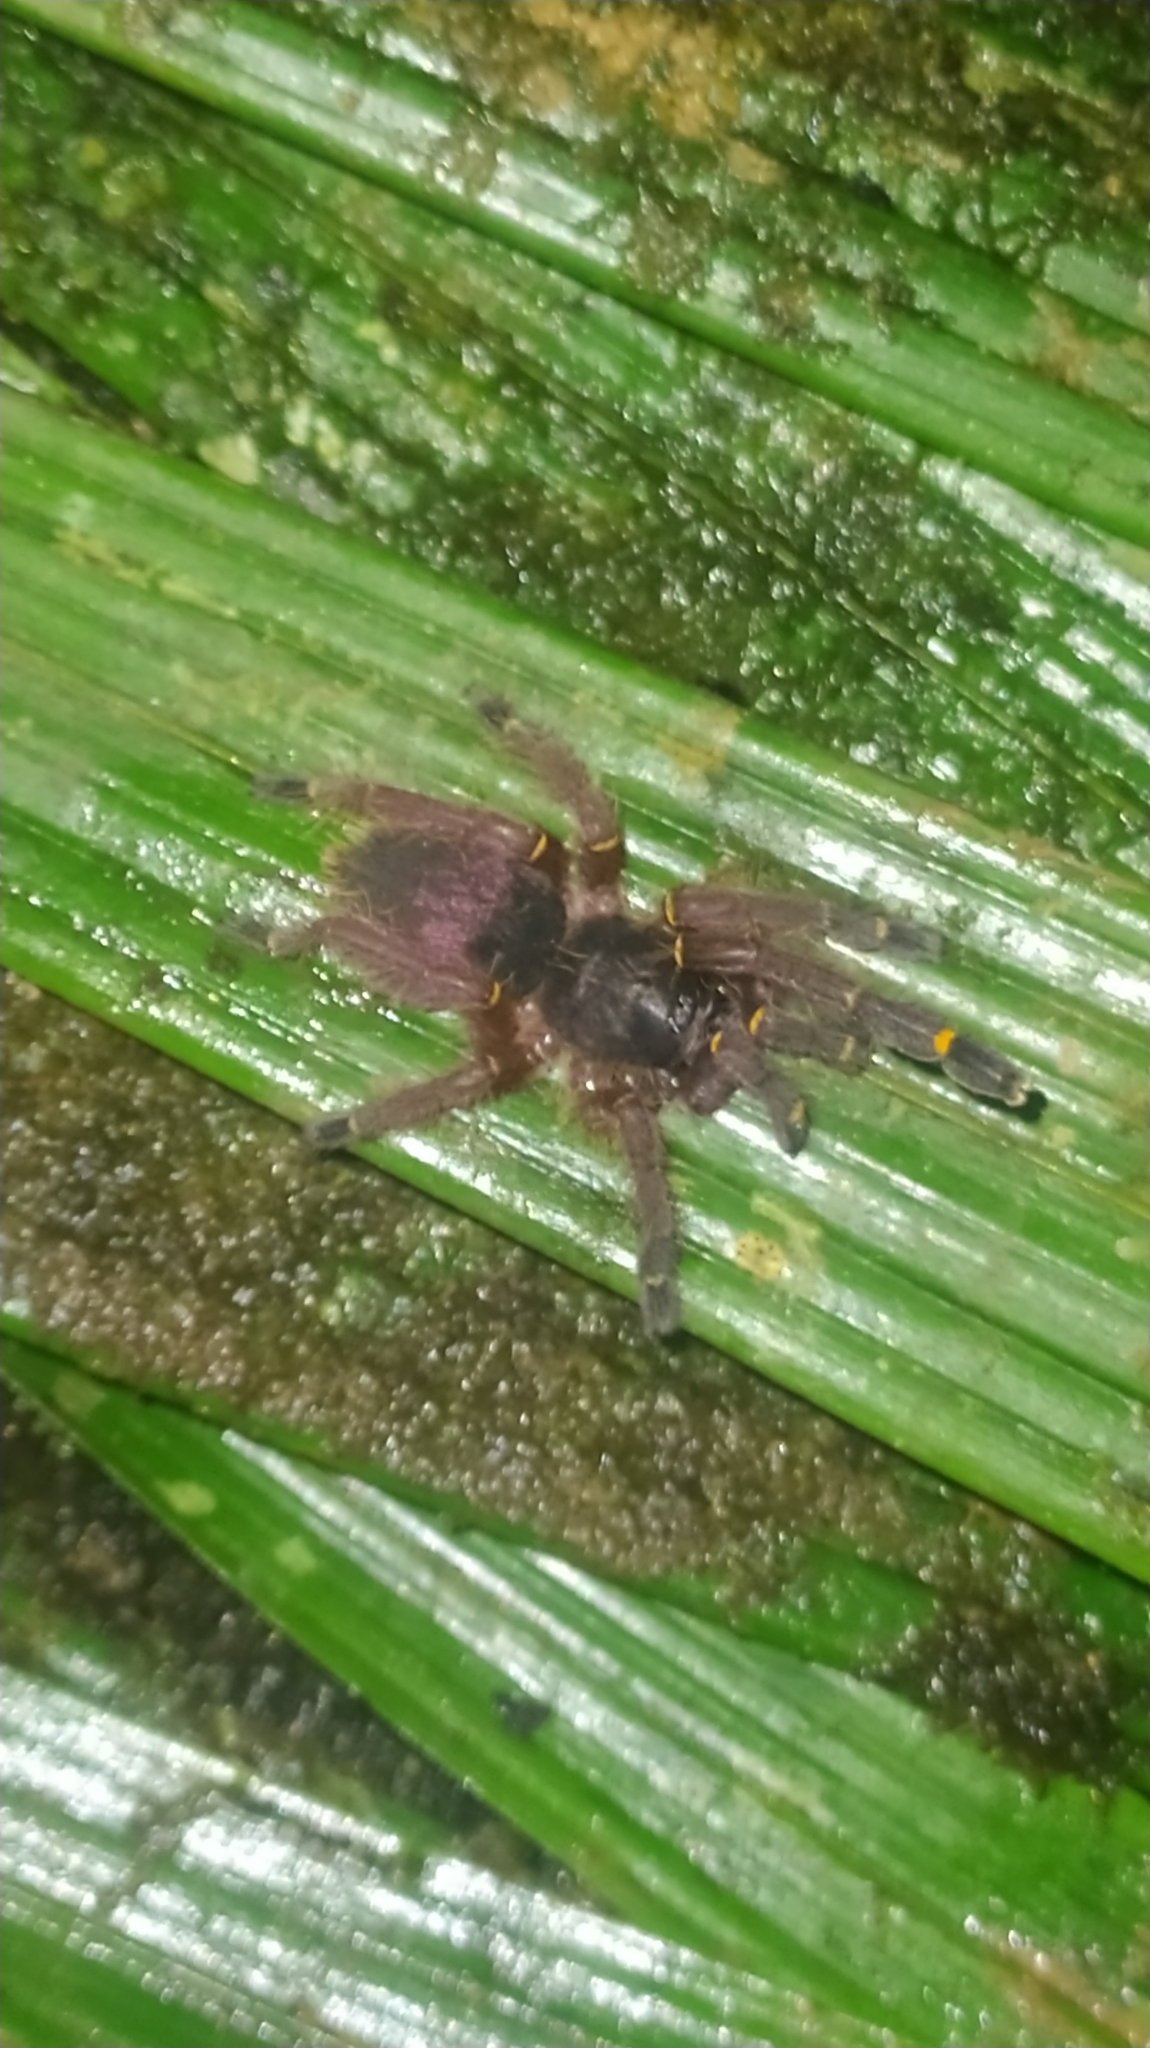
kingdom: Animalia
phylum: Arthropoda
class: Arachnida
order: Araneae
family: Theraphosidae
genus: Ephebopus
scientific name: Ephebopus cyanognathus
